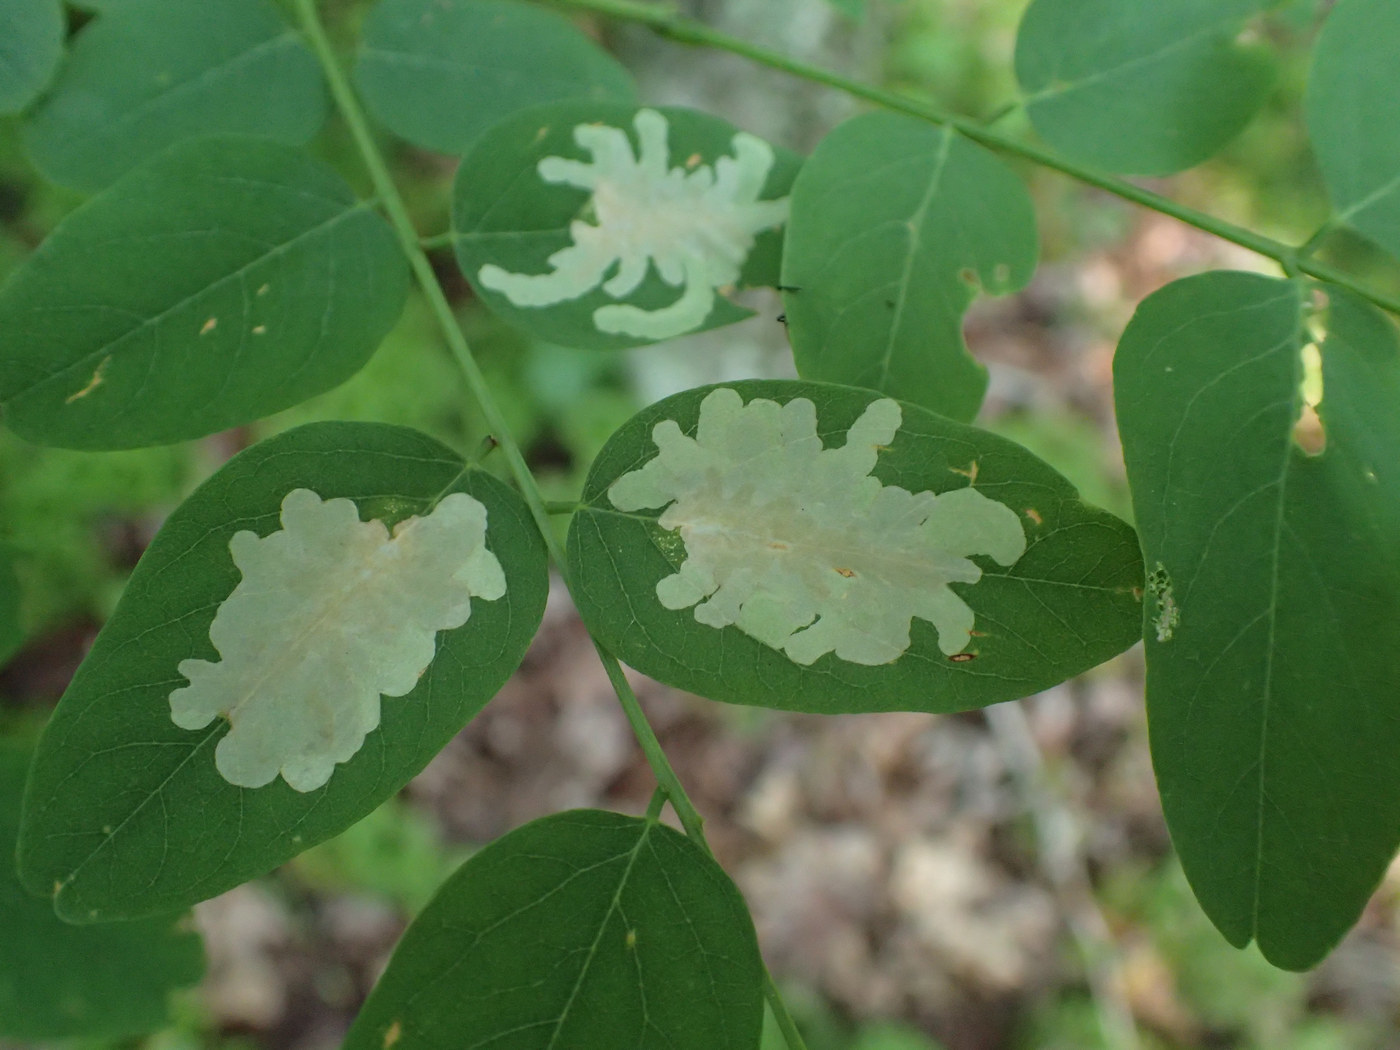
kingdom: Animalia
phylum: Arthropoda
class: Insecta
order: Lepidoptera
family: Gracillariidae
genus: Parectopa
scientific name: Parectopa robiniella
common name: Locust digitate leafminer
